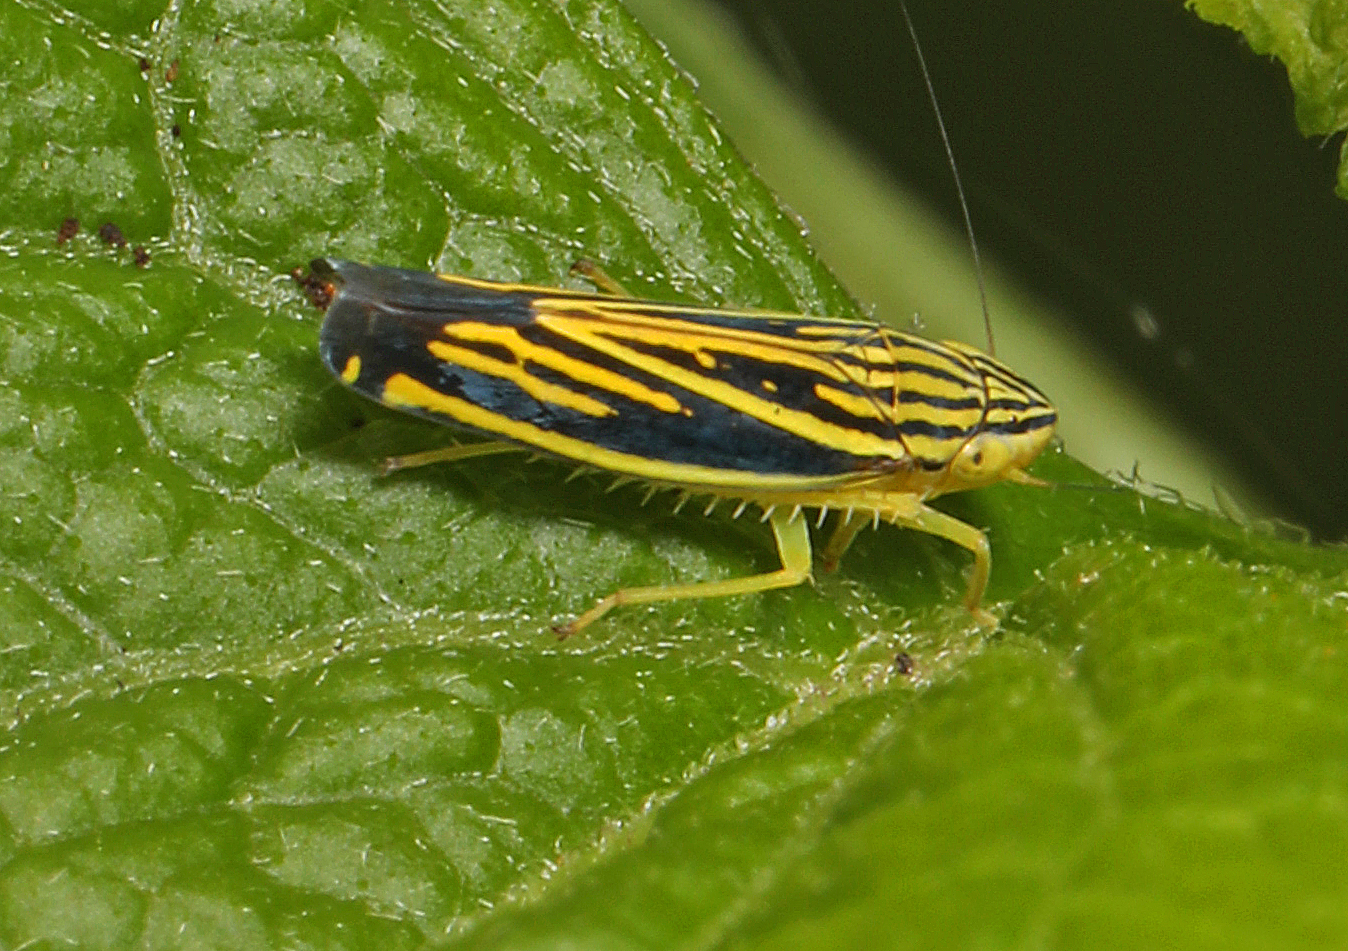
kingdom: Animalia
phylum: Arthropoda
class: Insecta
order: Hemiptera
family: Cicadellidae
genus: Sibovia
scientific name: Sibovia occatoria
